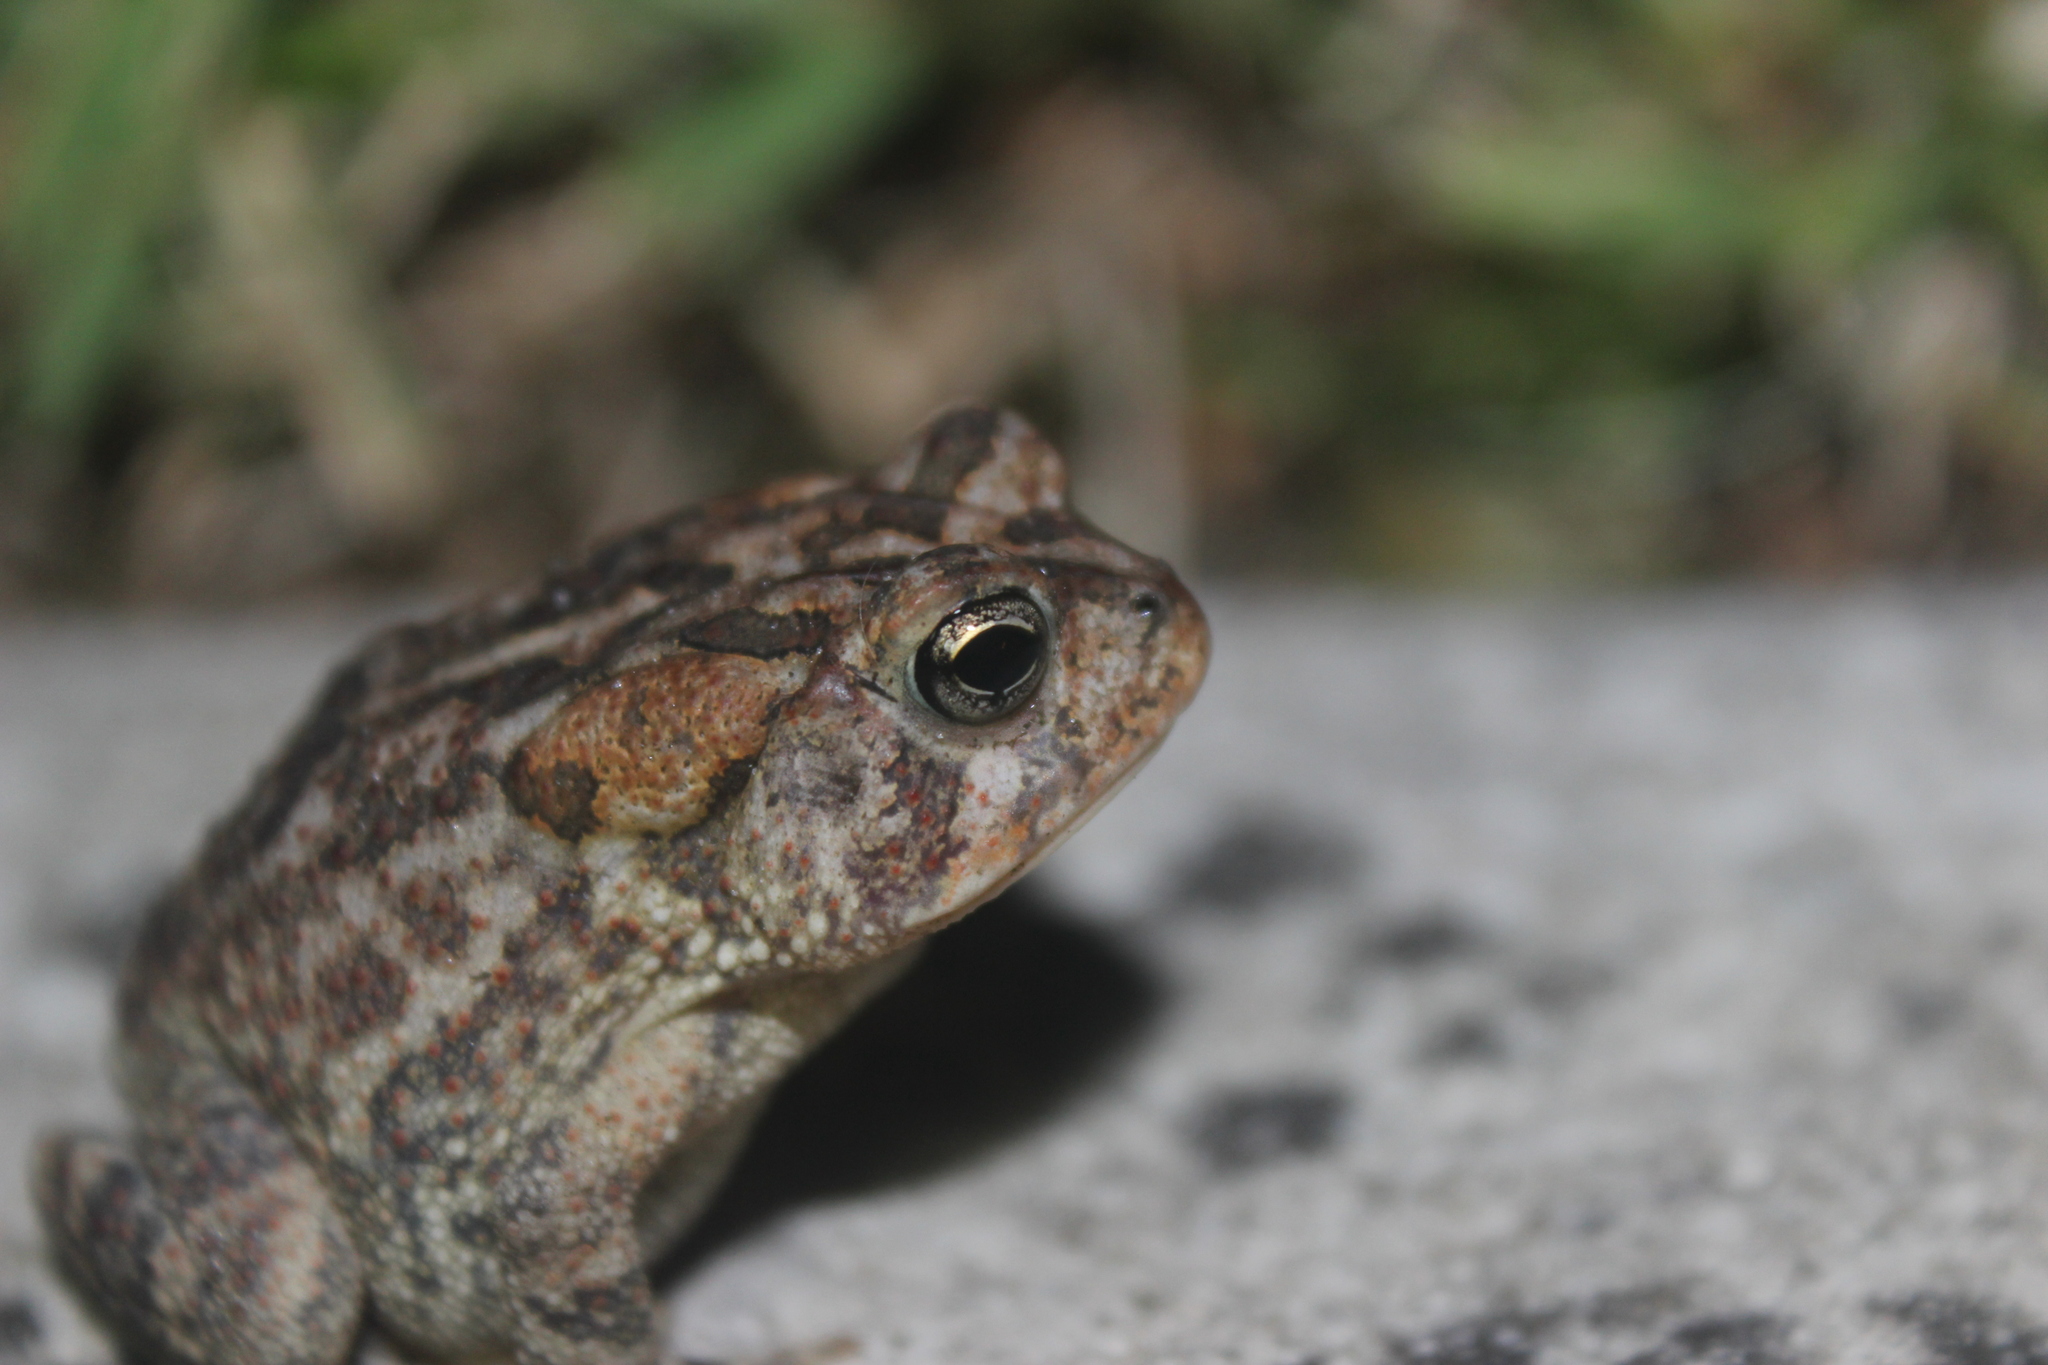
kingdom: Animalia
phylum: Chordata
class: Amphibia
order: Anura
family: Bufonidae
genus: Anaxyrus
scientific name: Anaxyrus terrestris
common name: Southern toad
